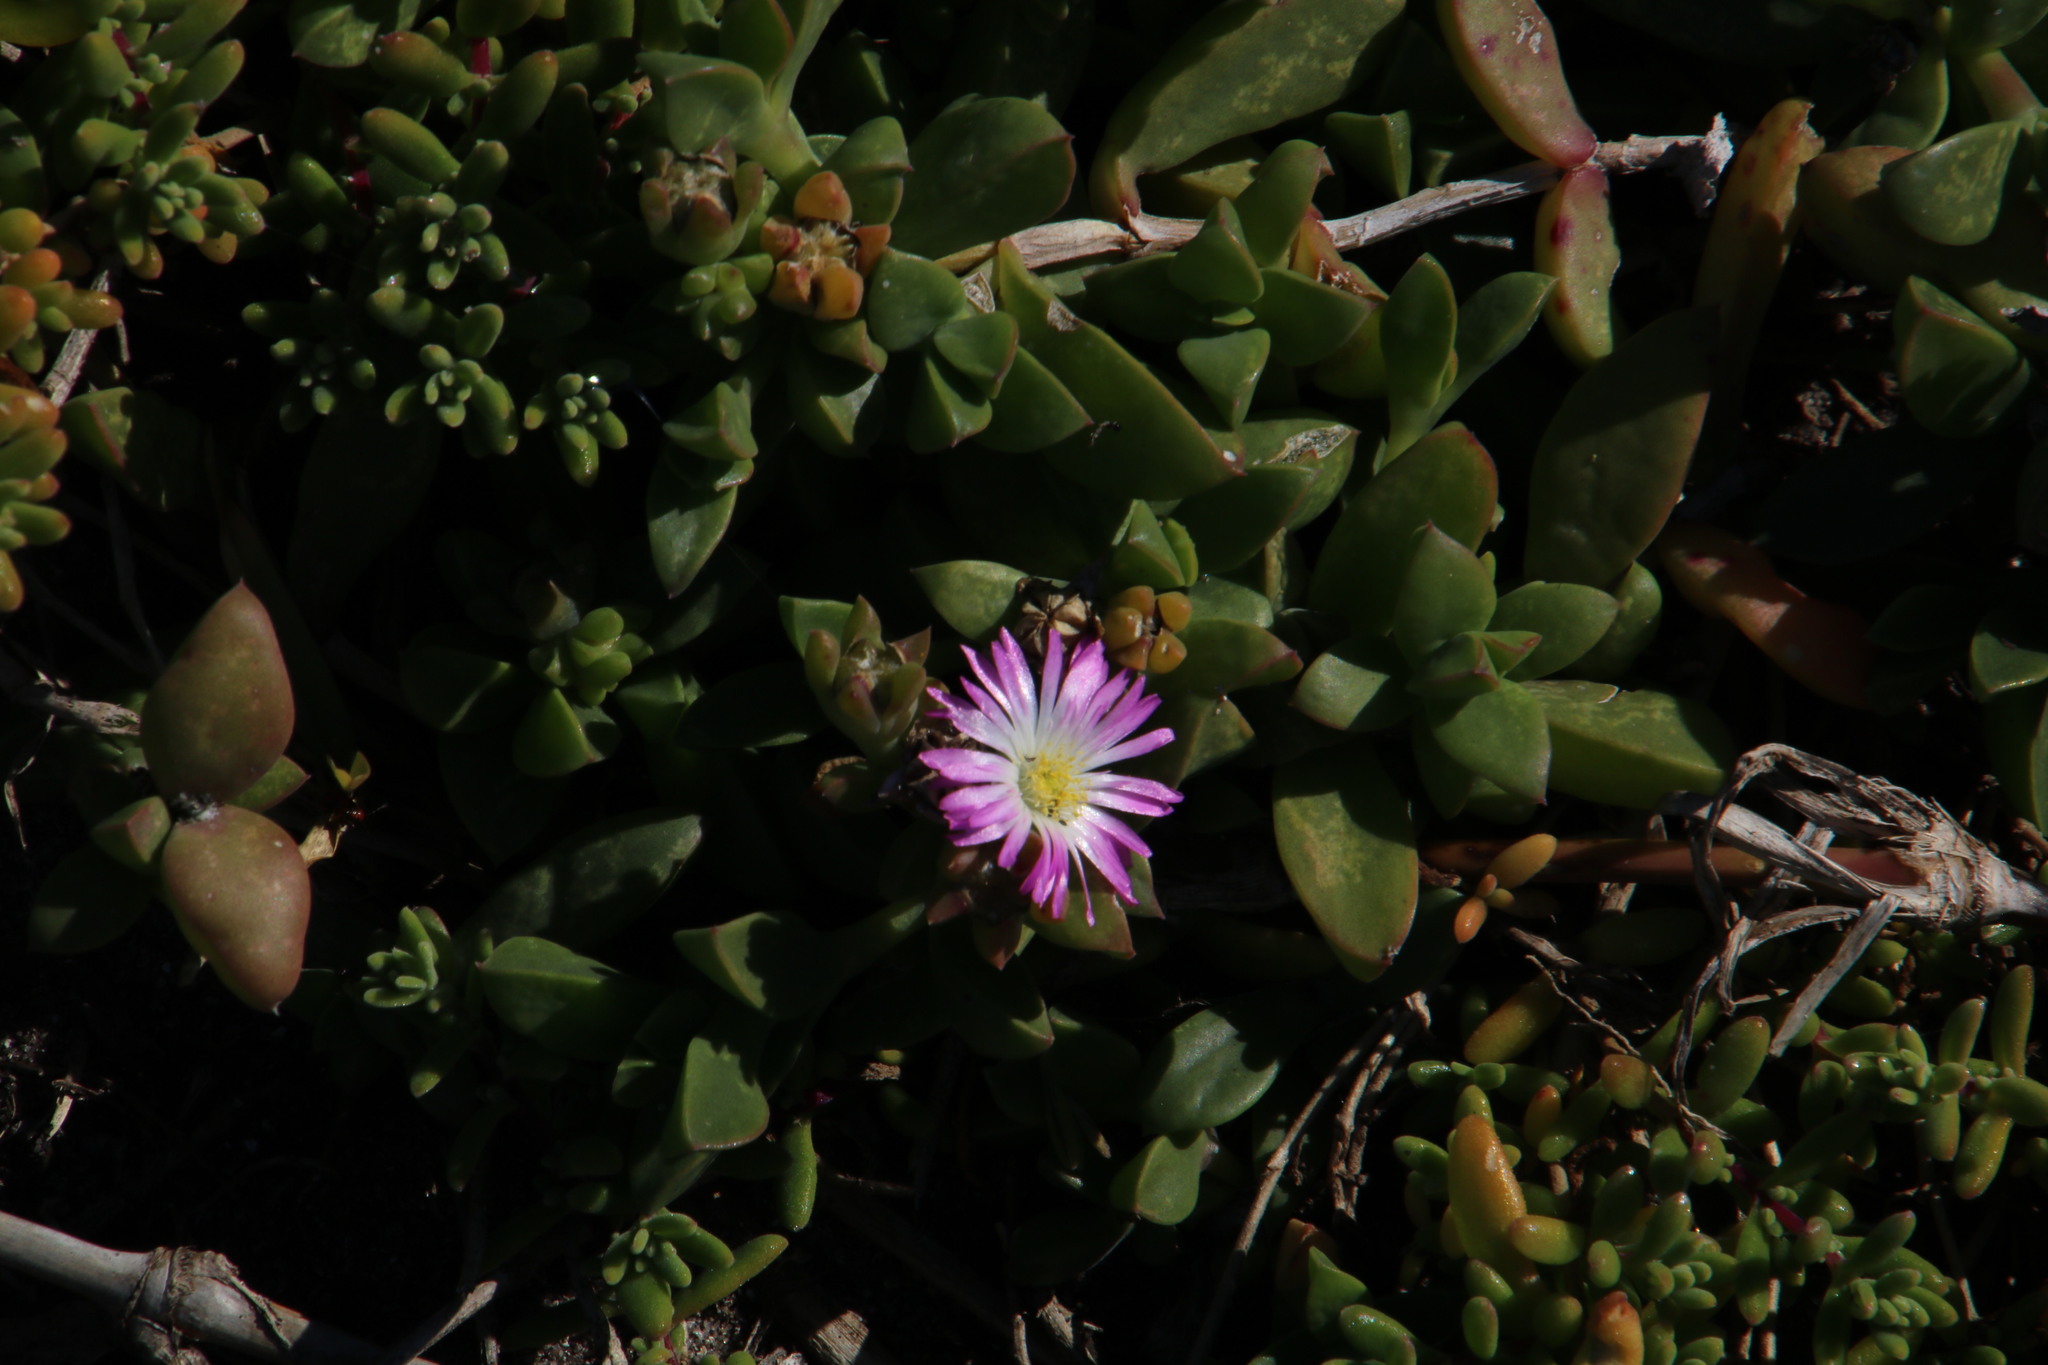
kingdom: Plantae
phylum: Tracheophyta
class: Magnoliopsida
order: Caryophyllales
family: Aizoaceae
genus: Delosperma
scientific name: Delosperma patersoniae
